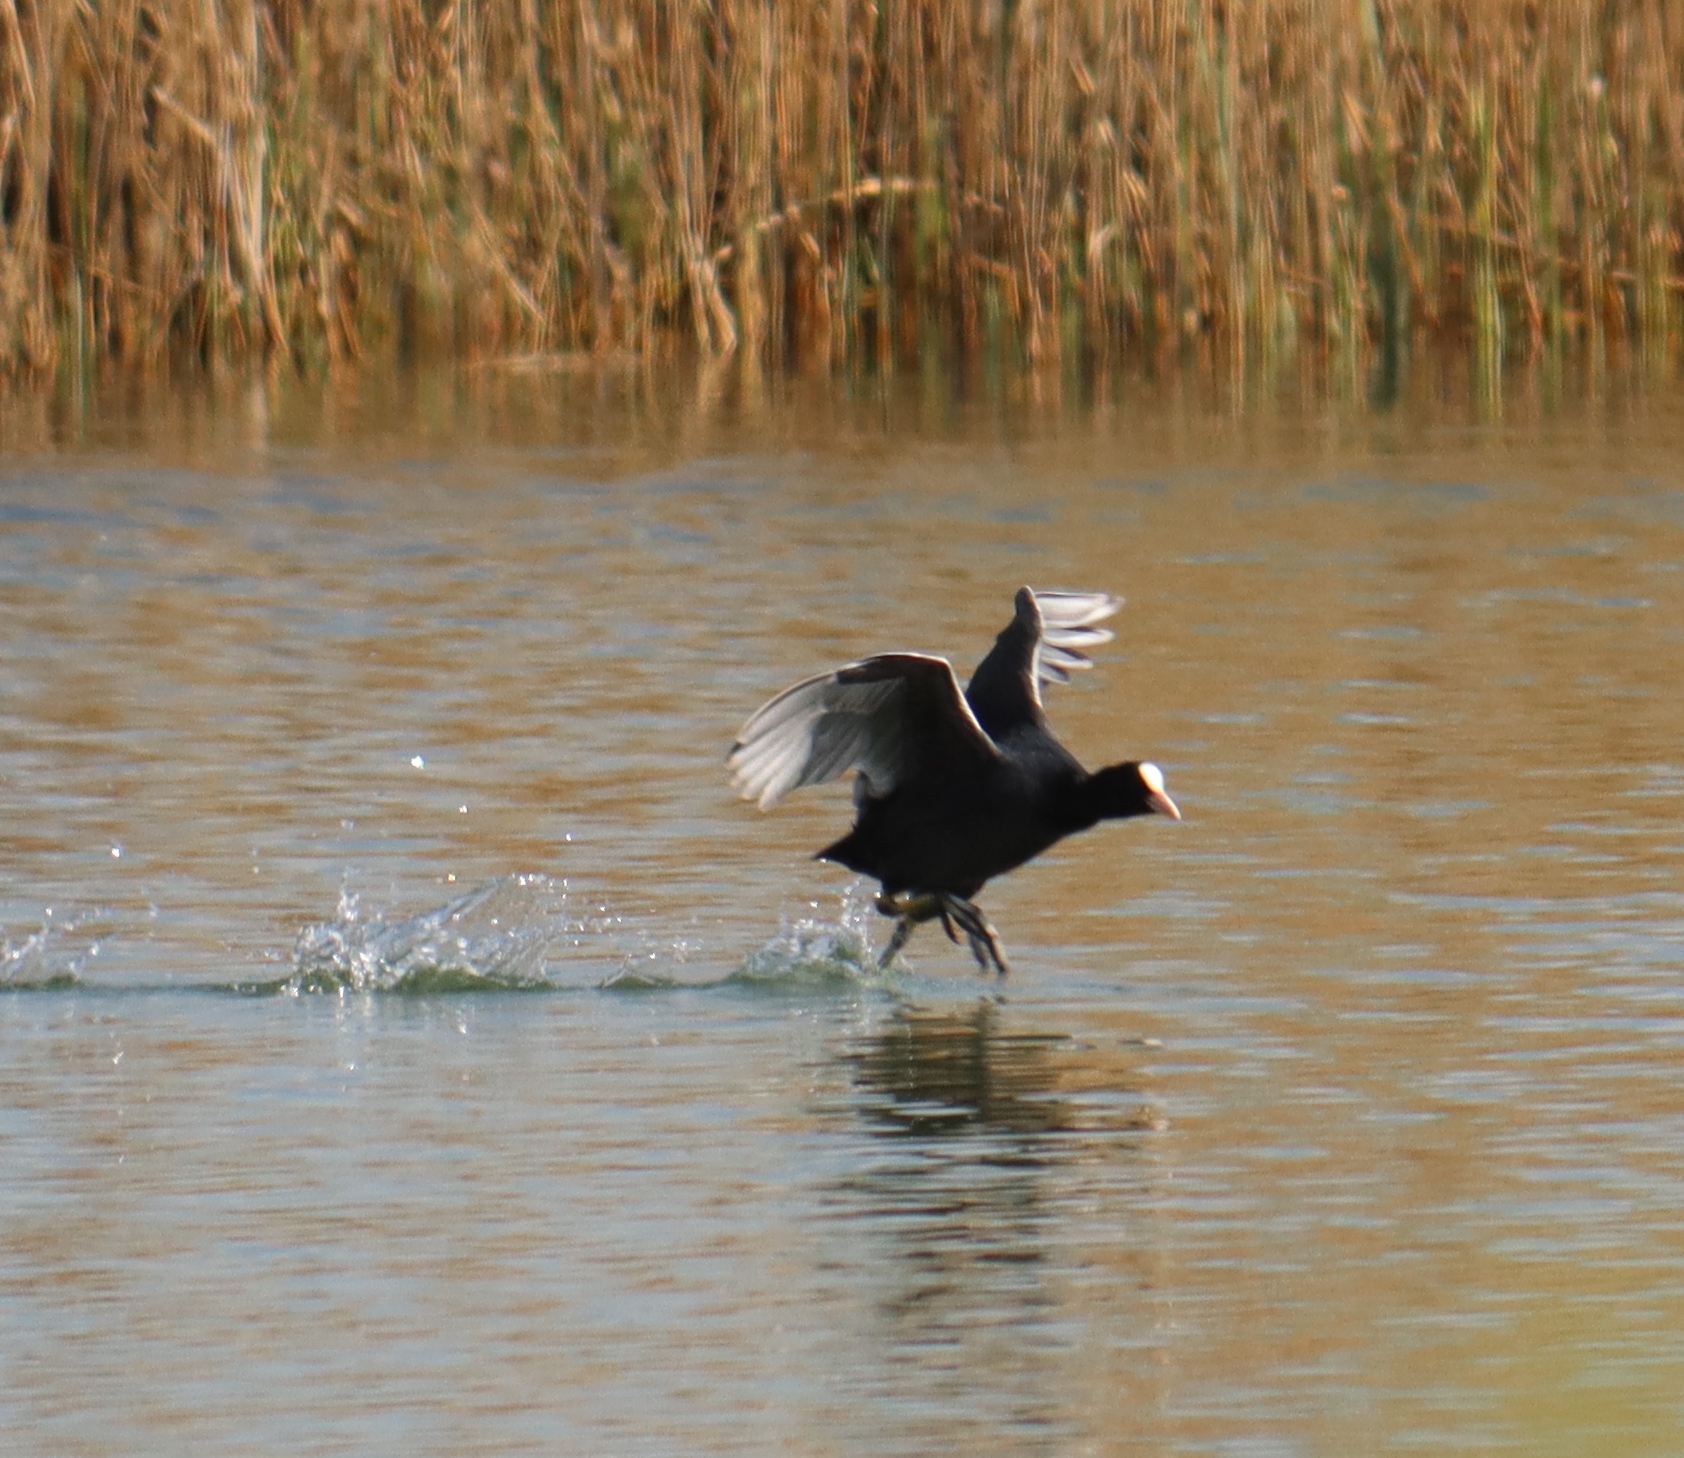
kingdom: Animalia
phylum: Chordata
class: Aves
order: Gruiformes
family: Rallidae
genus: Fulica
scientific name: Fulica atra
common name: Eurasian coot
